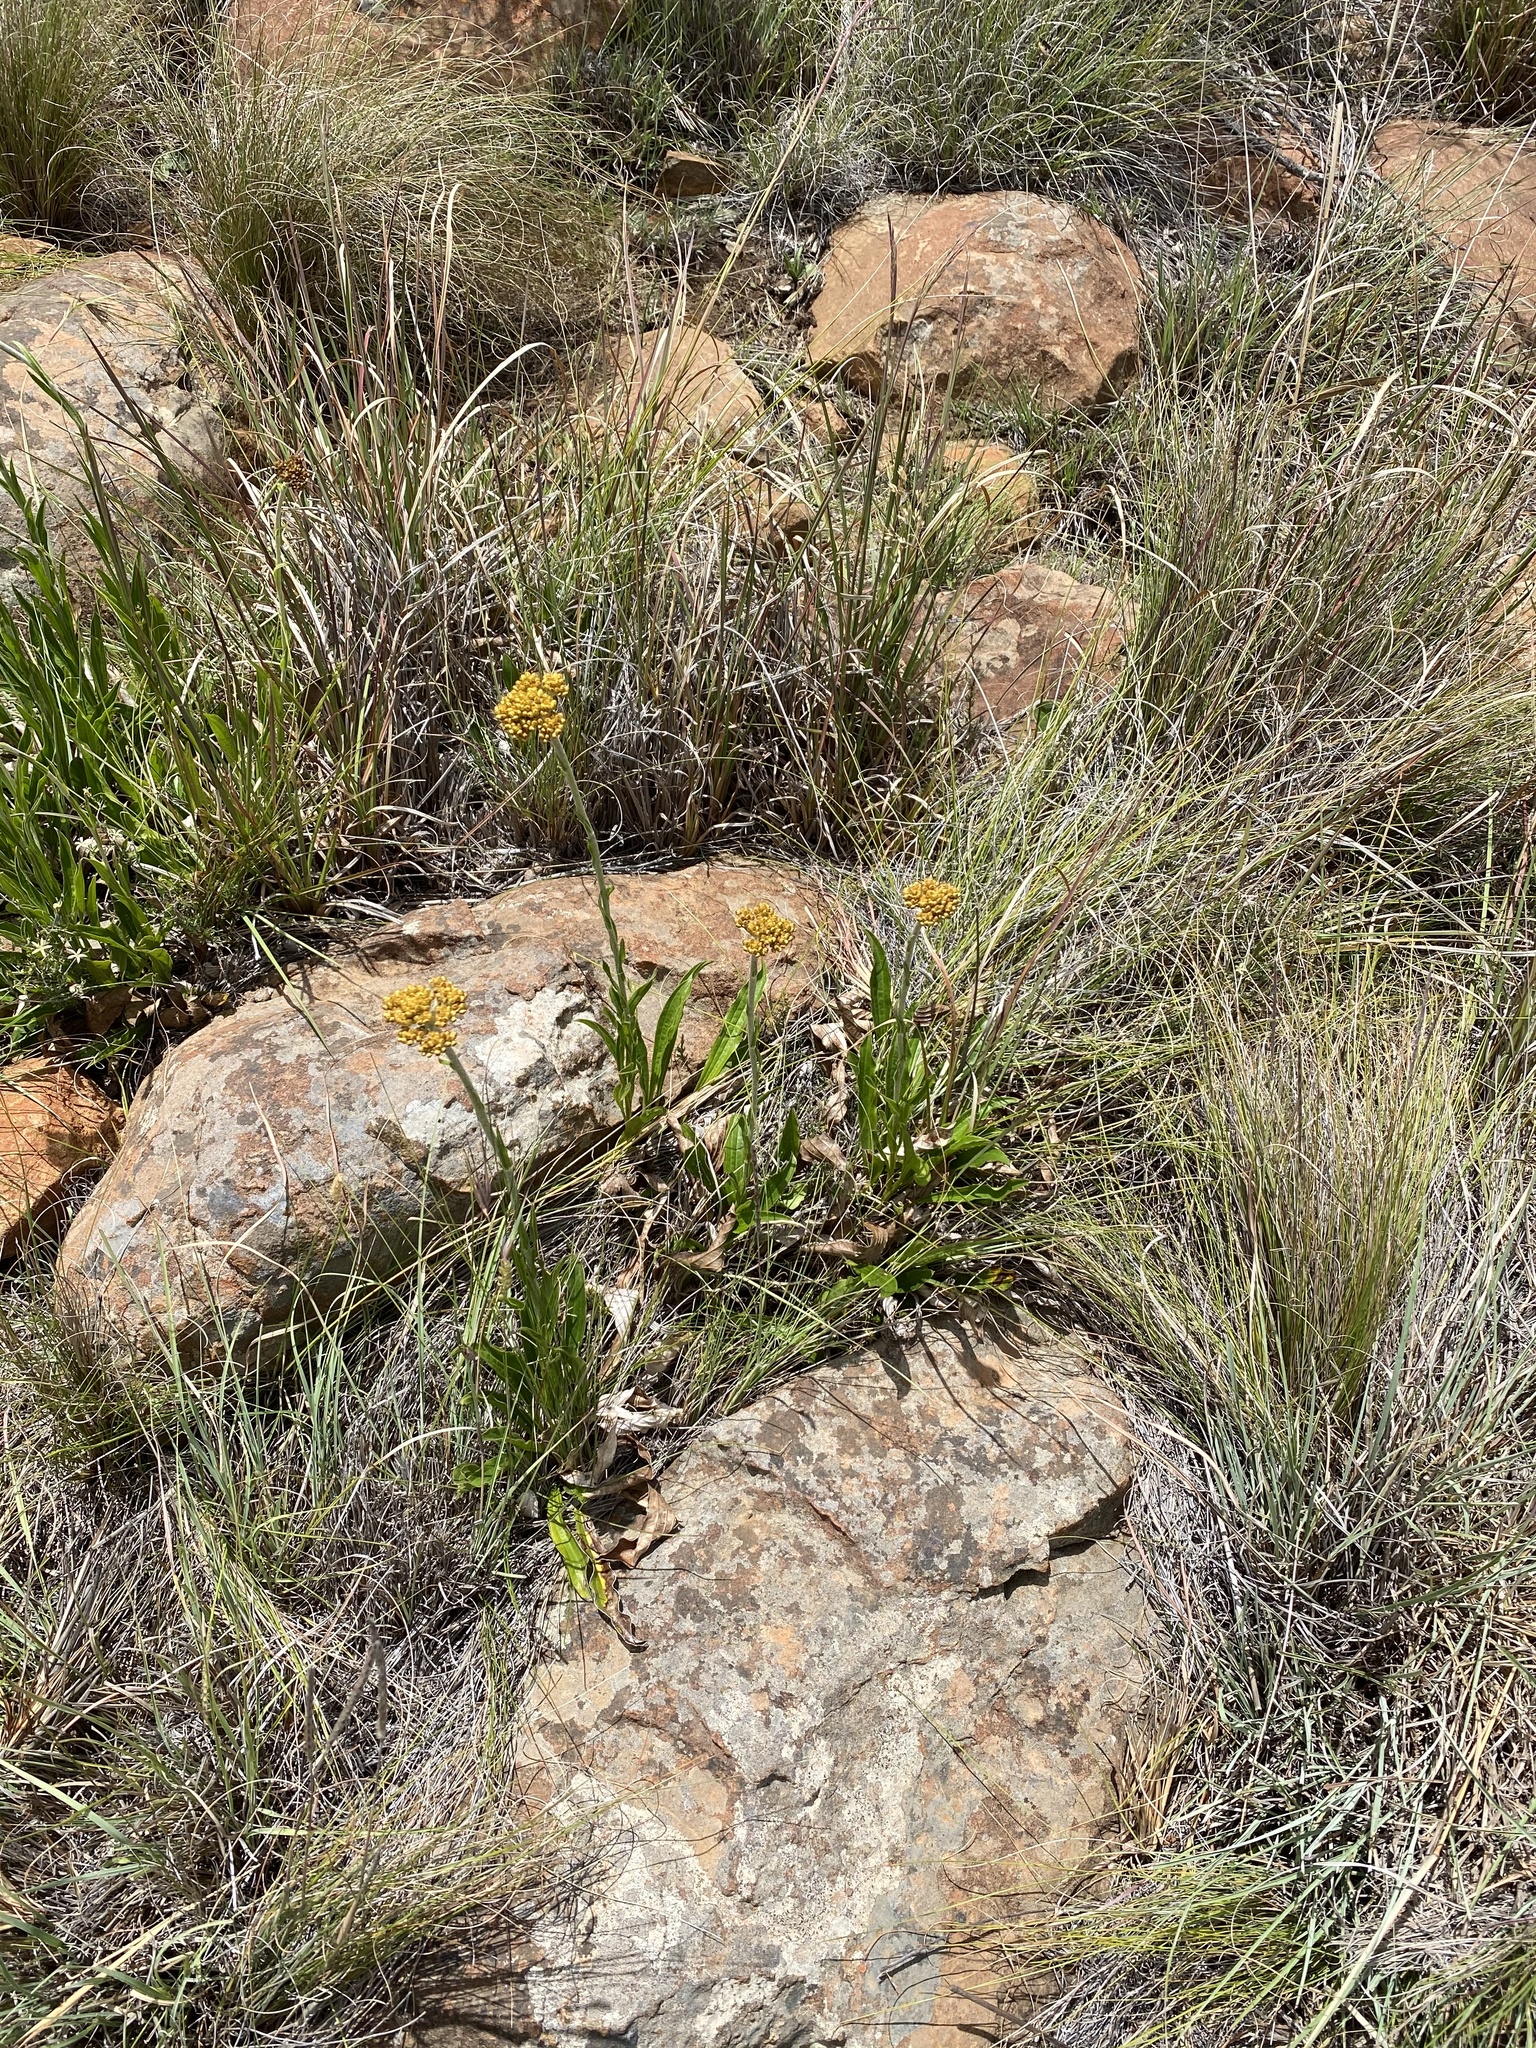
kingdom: Plantae
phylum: Tracheophyta
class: Magnoliopsida
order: Asterales
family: Asteraceae
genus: Helichrysum
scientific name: Helichrysum nudifolium
